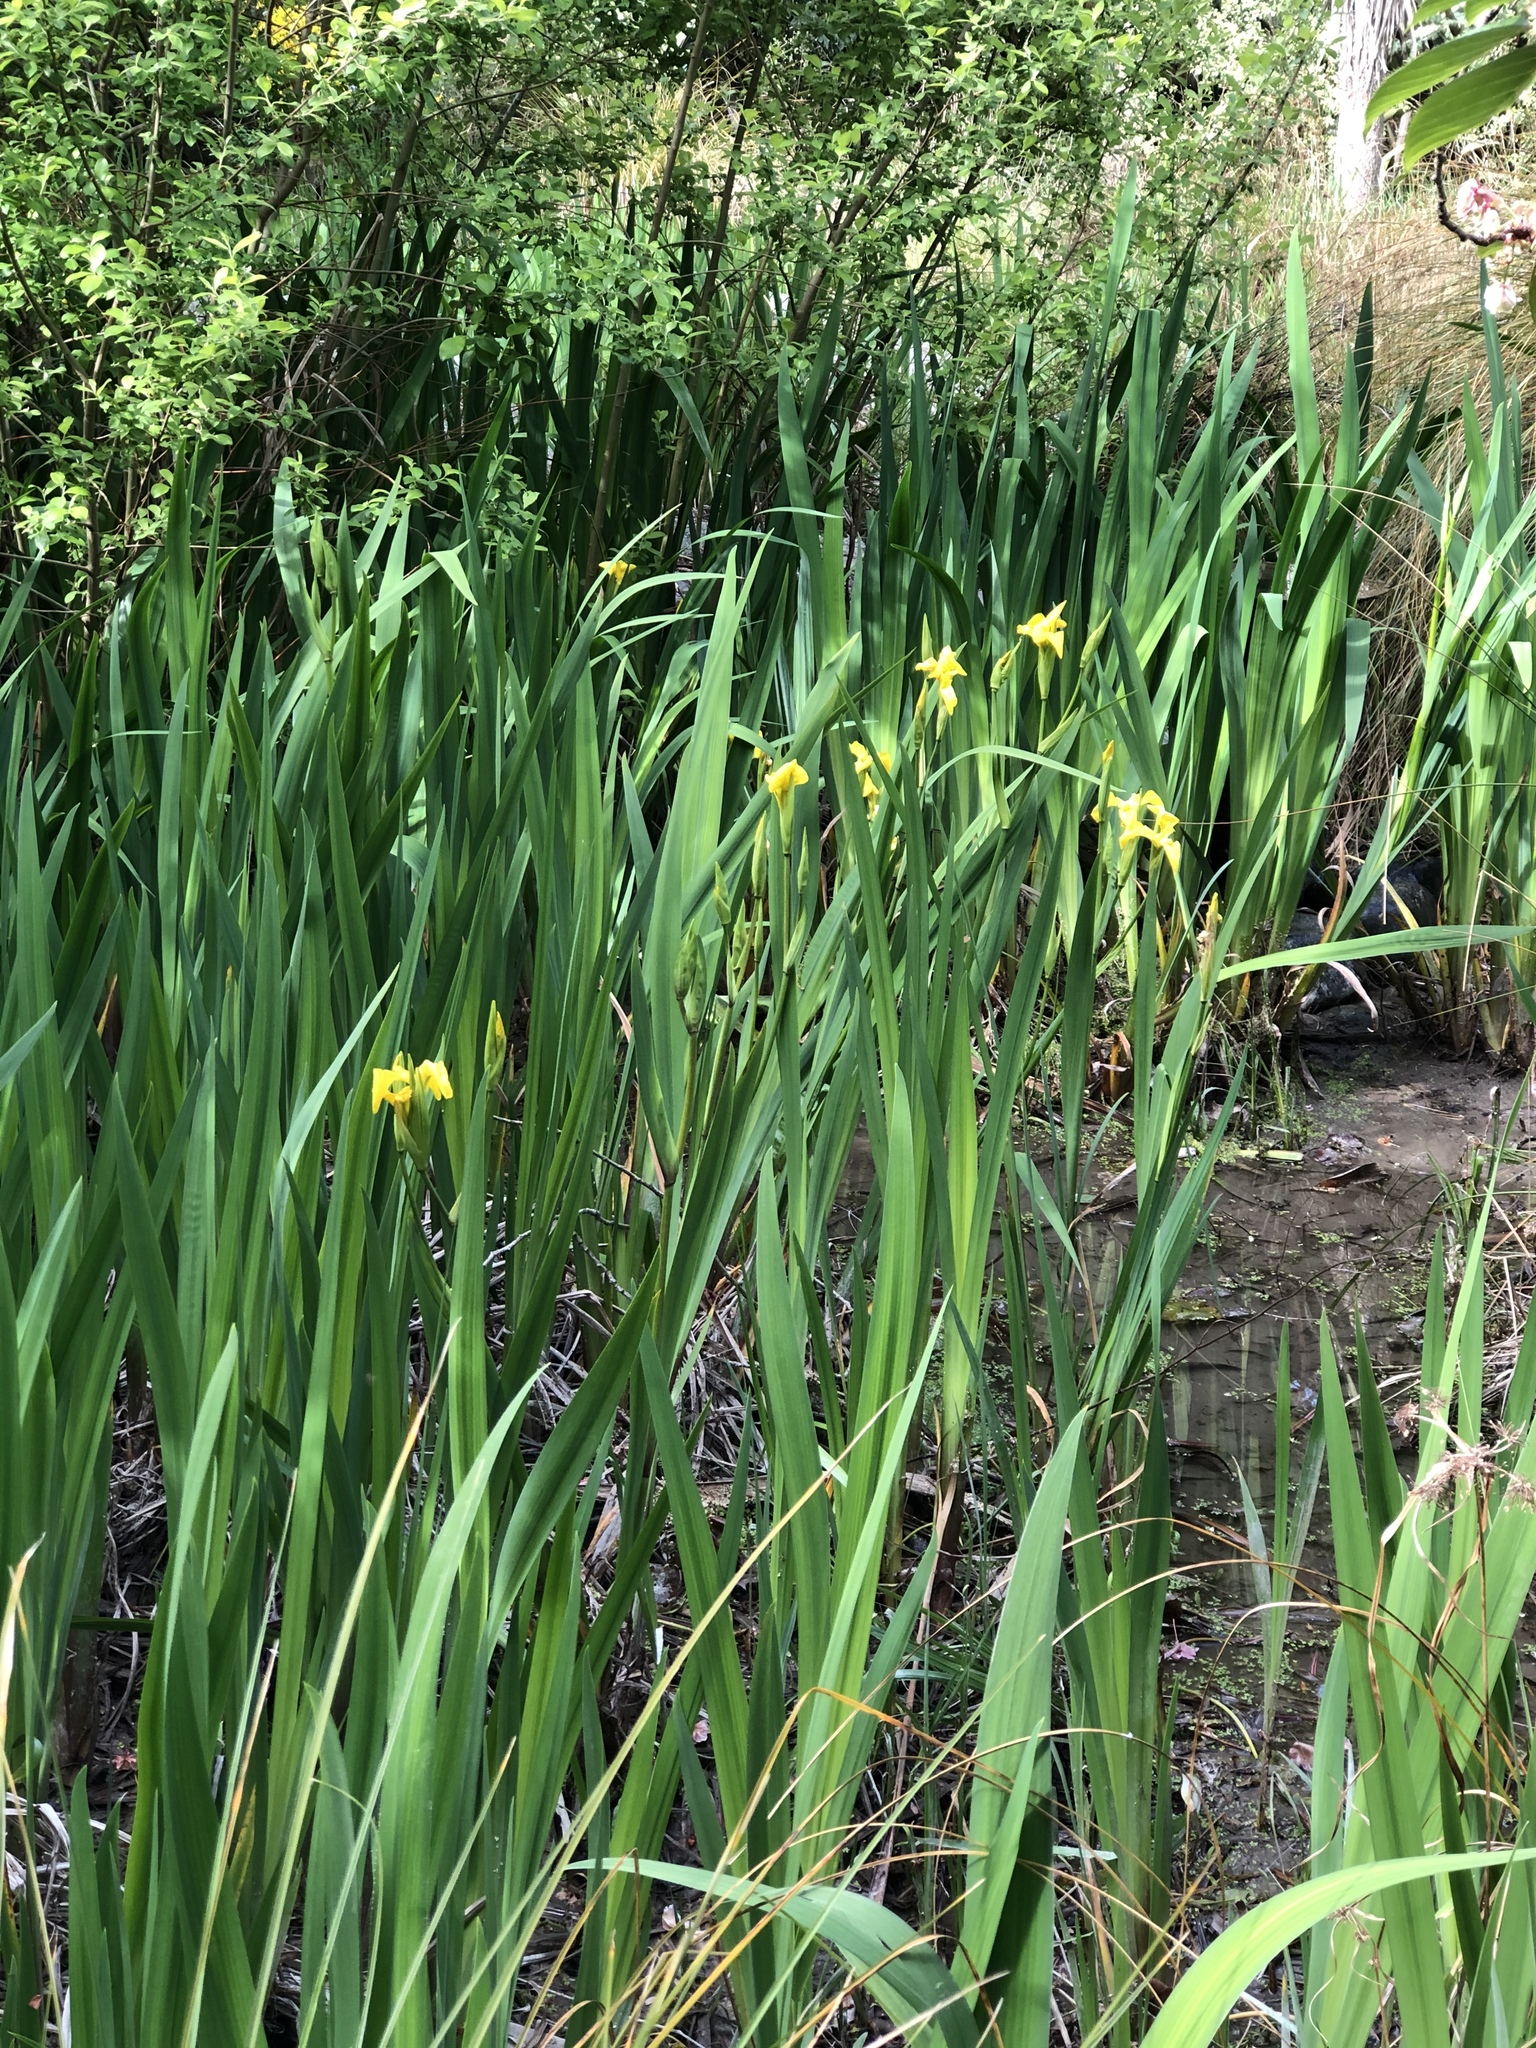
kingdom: Plantae
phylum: Tracheophyta
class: Liliopsida
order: Asparagales
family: Iridaceae
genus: Iris
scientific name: Iris pseudacorus
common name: Yellow flag
